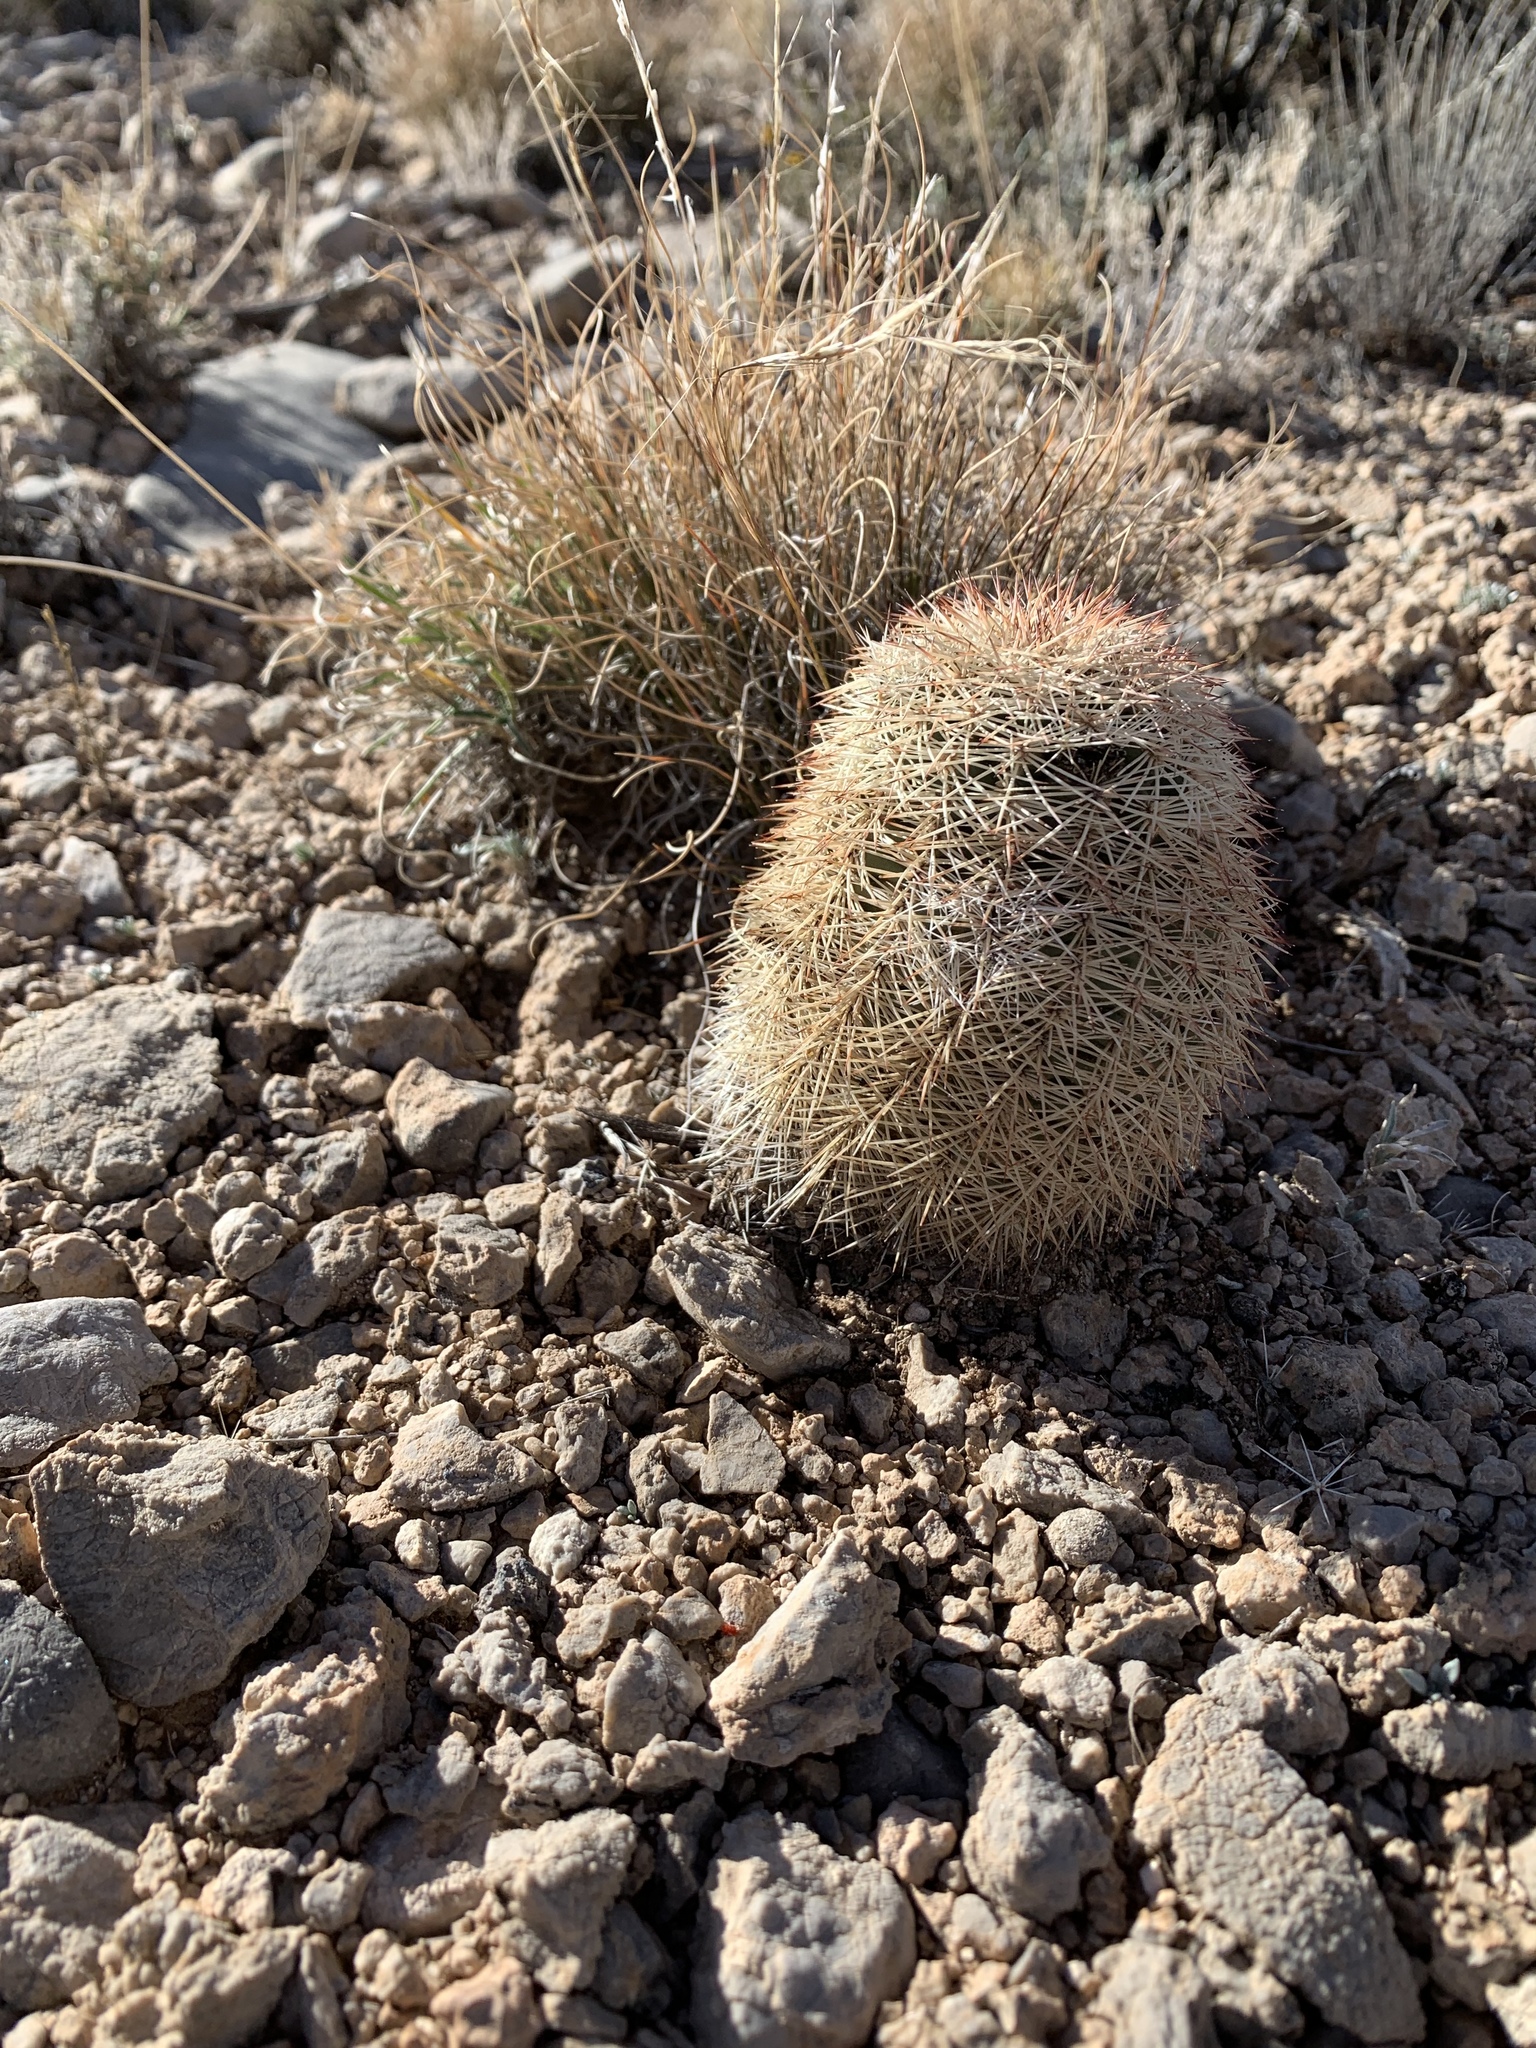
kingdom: Plantae
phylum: Tracheophyta
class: Magnoliopsida
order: Caryophyllales
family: Cactaceae
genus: Echinocereus
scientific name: Echinocereus dasyacanthus
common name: Spiny hedgehog cactus
